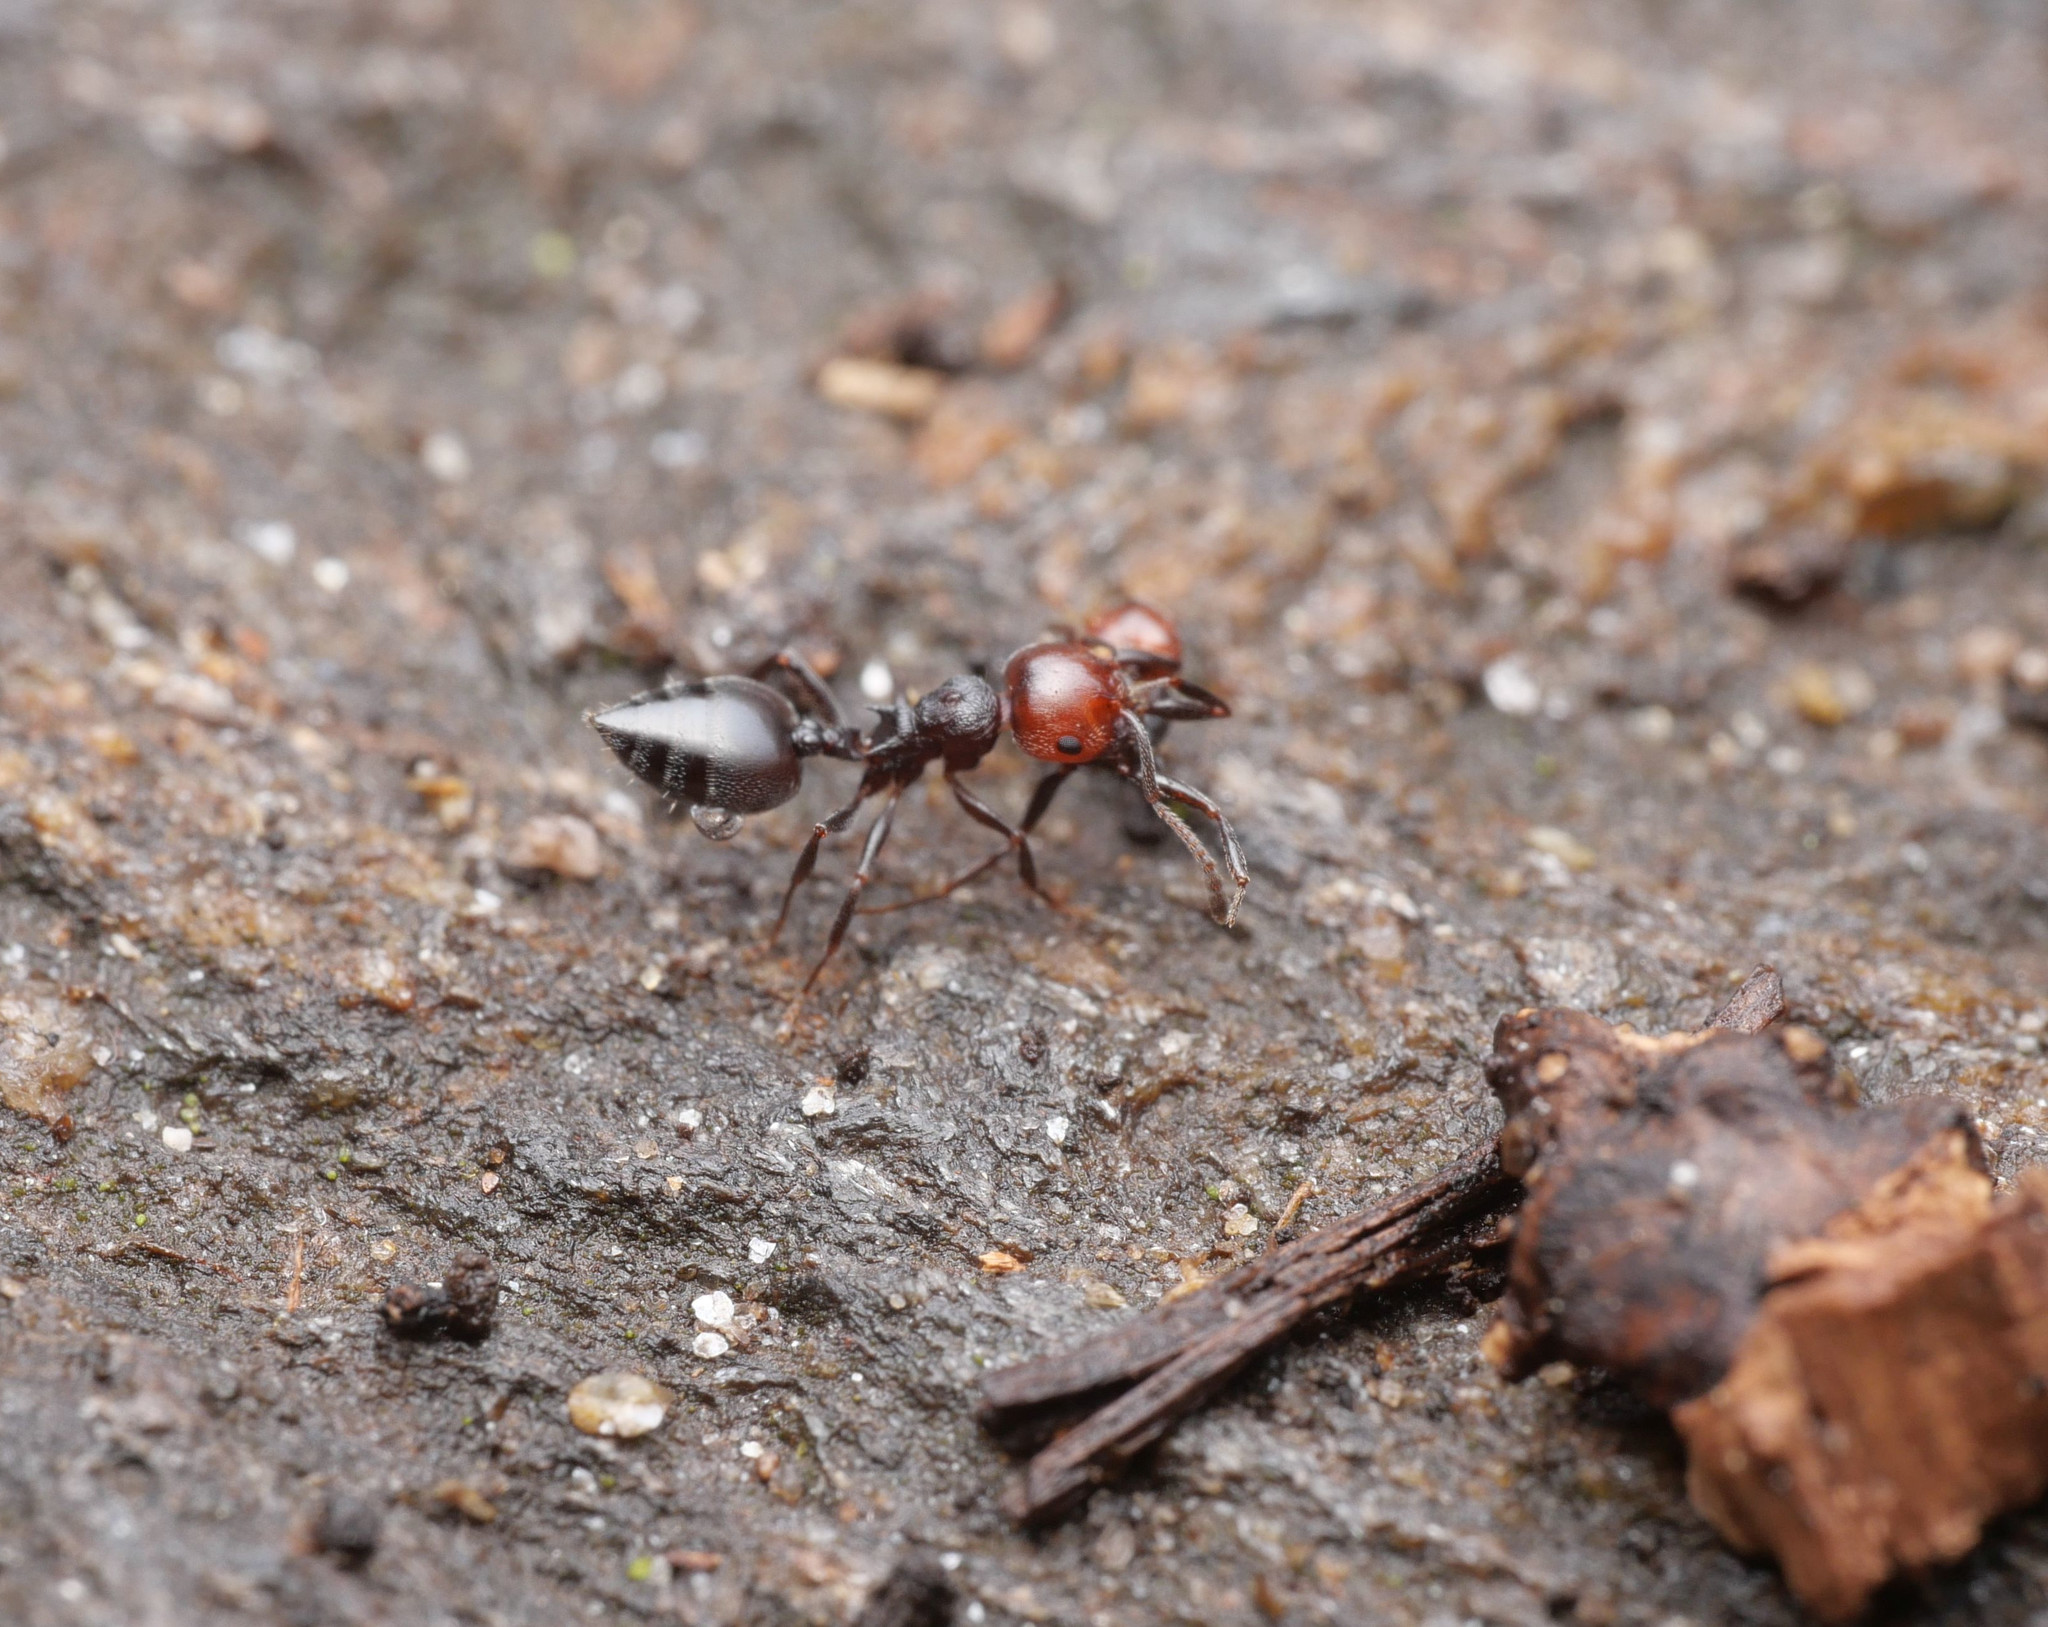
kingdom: Animalia
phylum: Arthropoda
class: Insecta
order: Hymenoptera
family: Formicidae
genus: Crematogaster
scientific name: Crematogaster scutellaris
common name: Fourmi du liège
